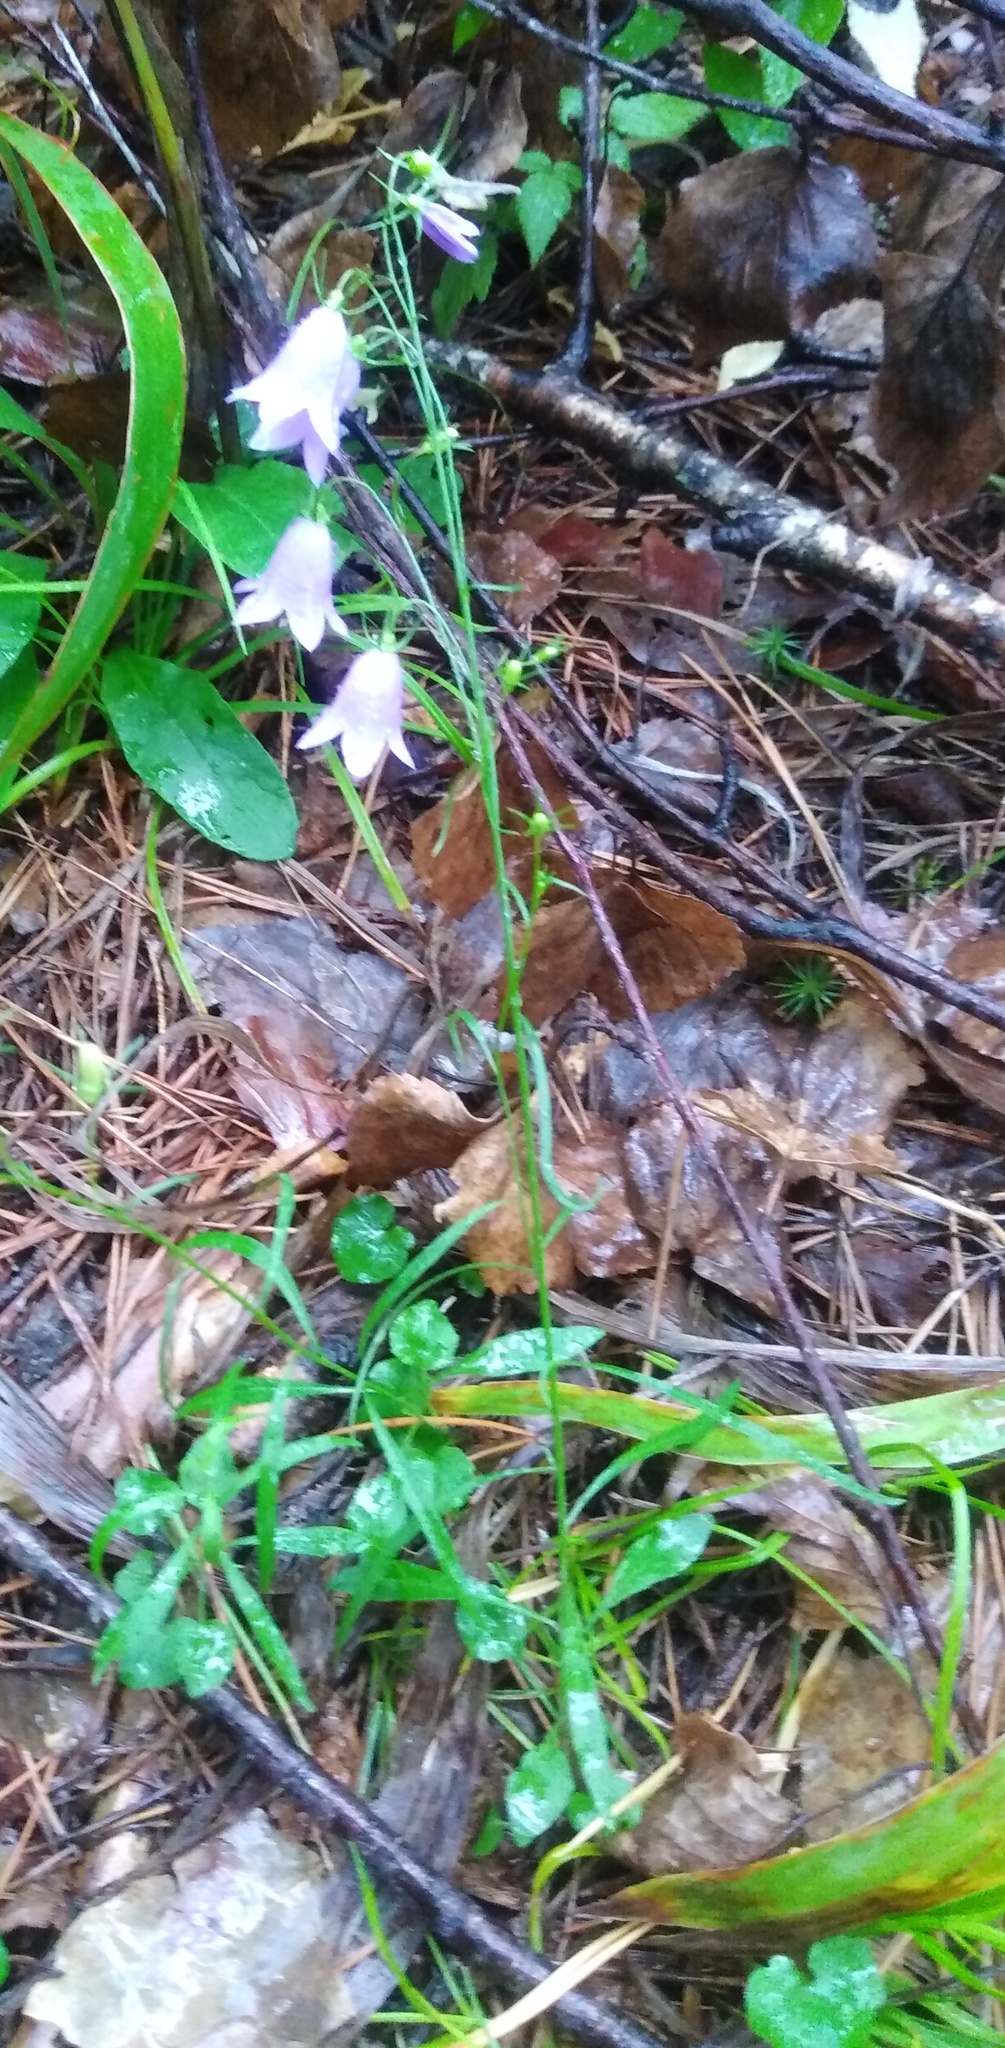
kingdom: Plantae
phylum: Tracheophyta
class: Magnoliopsida
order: Asterales
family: Campanulaceae
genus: Campanula
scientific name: Campanula rotundifolia
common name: Harebell
